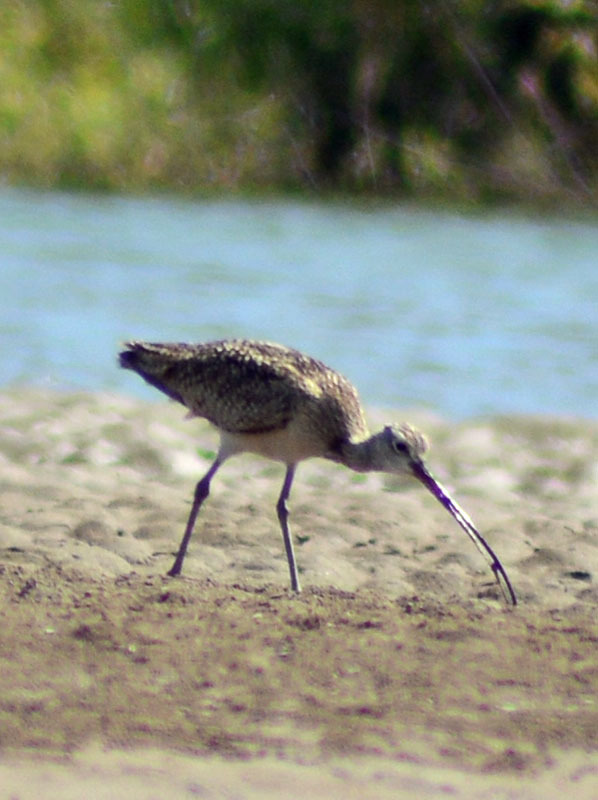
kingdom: Animalia
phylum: Chordata
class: Aves
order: Charadriiformes
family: Scolopacidae
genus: Numenius
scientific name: Numenius americanus
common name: Long-billed curlew
